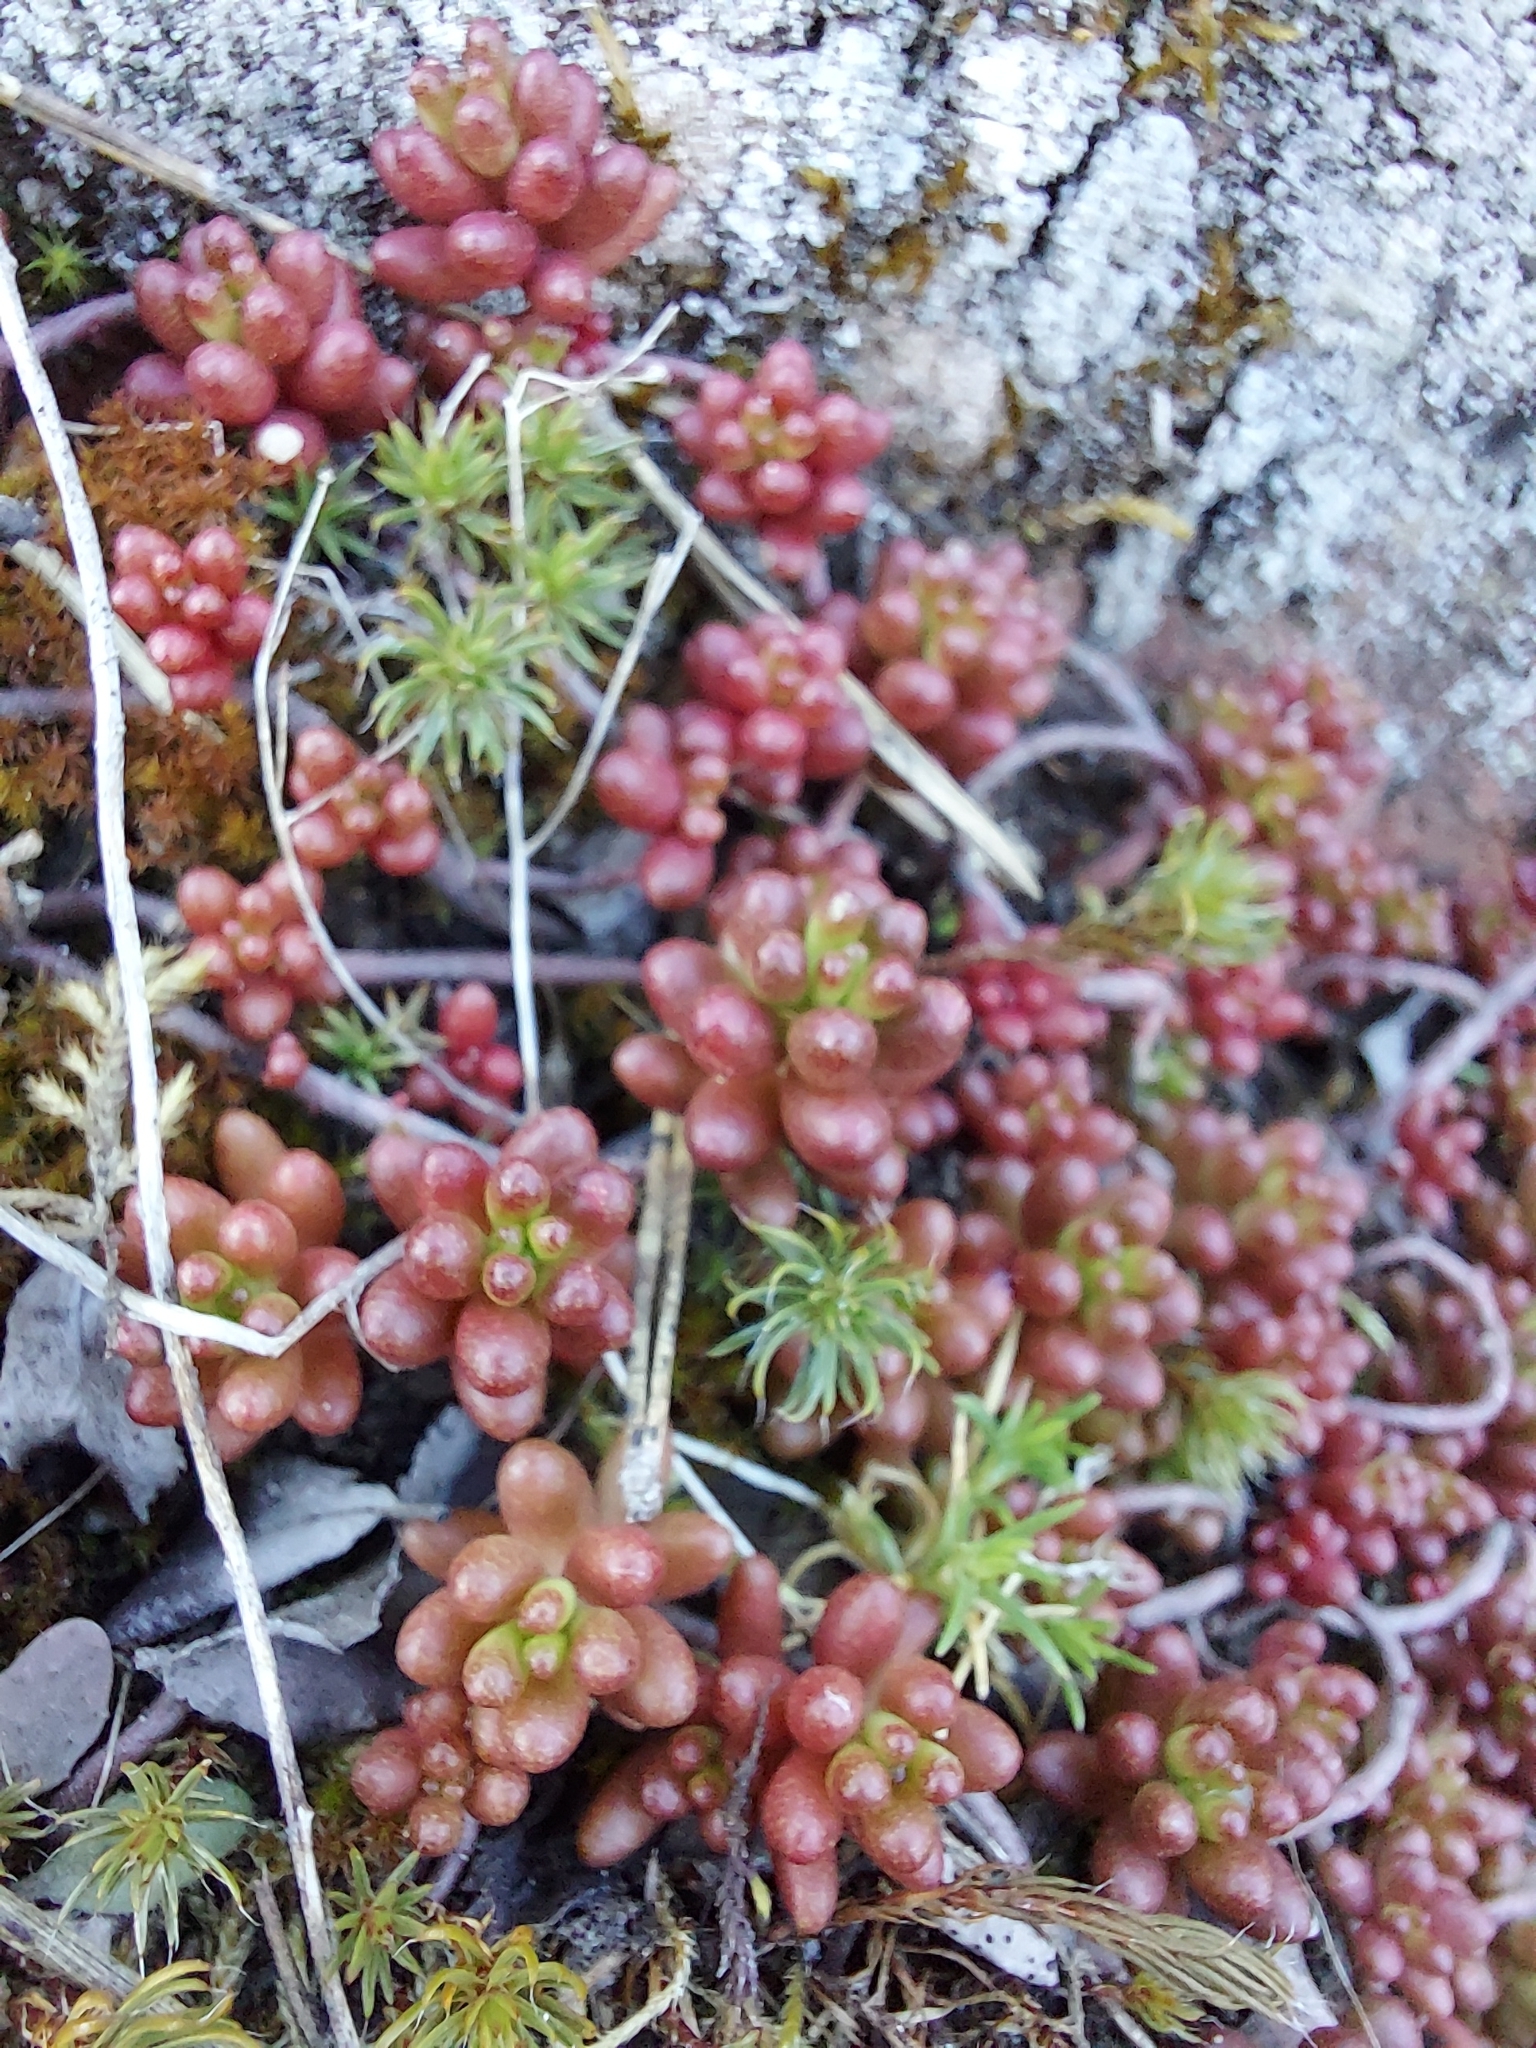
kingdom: Plantae
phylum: Tracheophyta
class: Magnoliopsida
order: Saxifragales
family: Crassulaceae
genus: Sedum
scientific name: Sedum album
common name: White stonecrop
